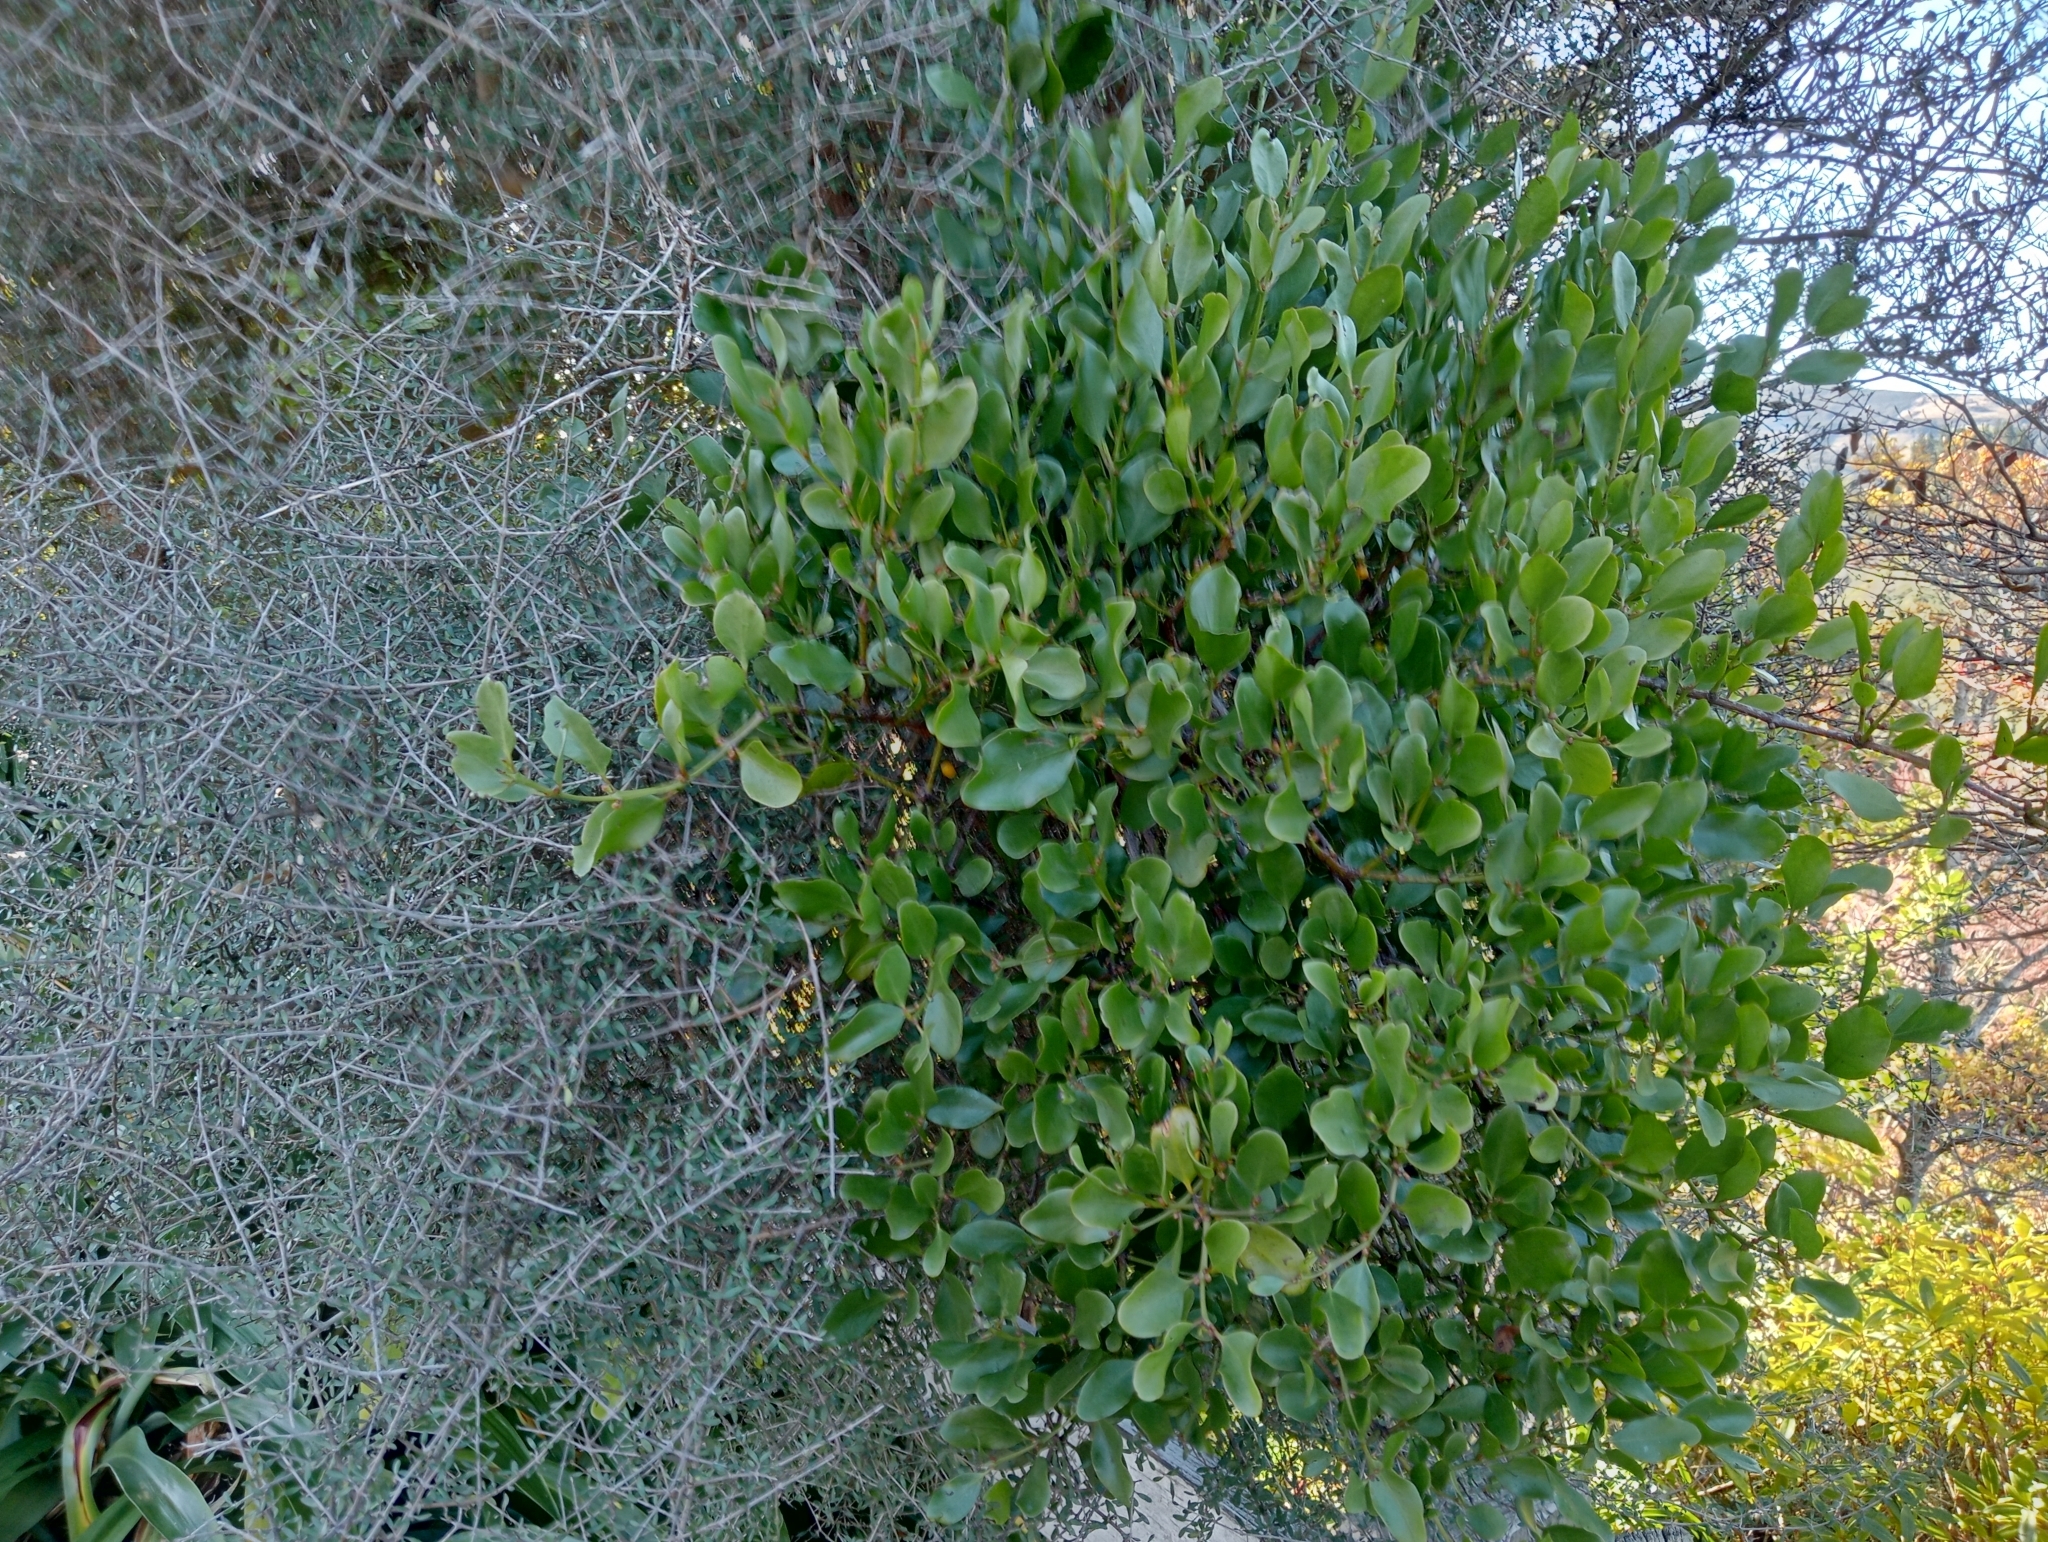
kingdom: Plantae
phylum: Tracheophyta
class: Magnoliopsida
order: Santalales
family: Loranthaceae
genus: Ileostylus
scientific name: Ileostylus micranthus
